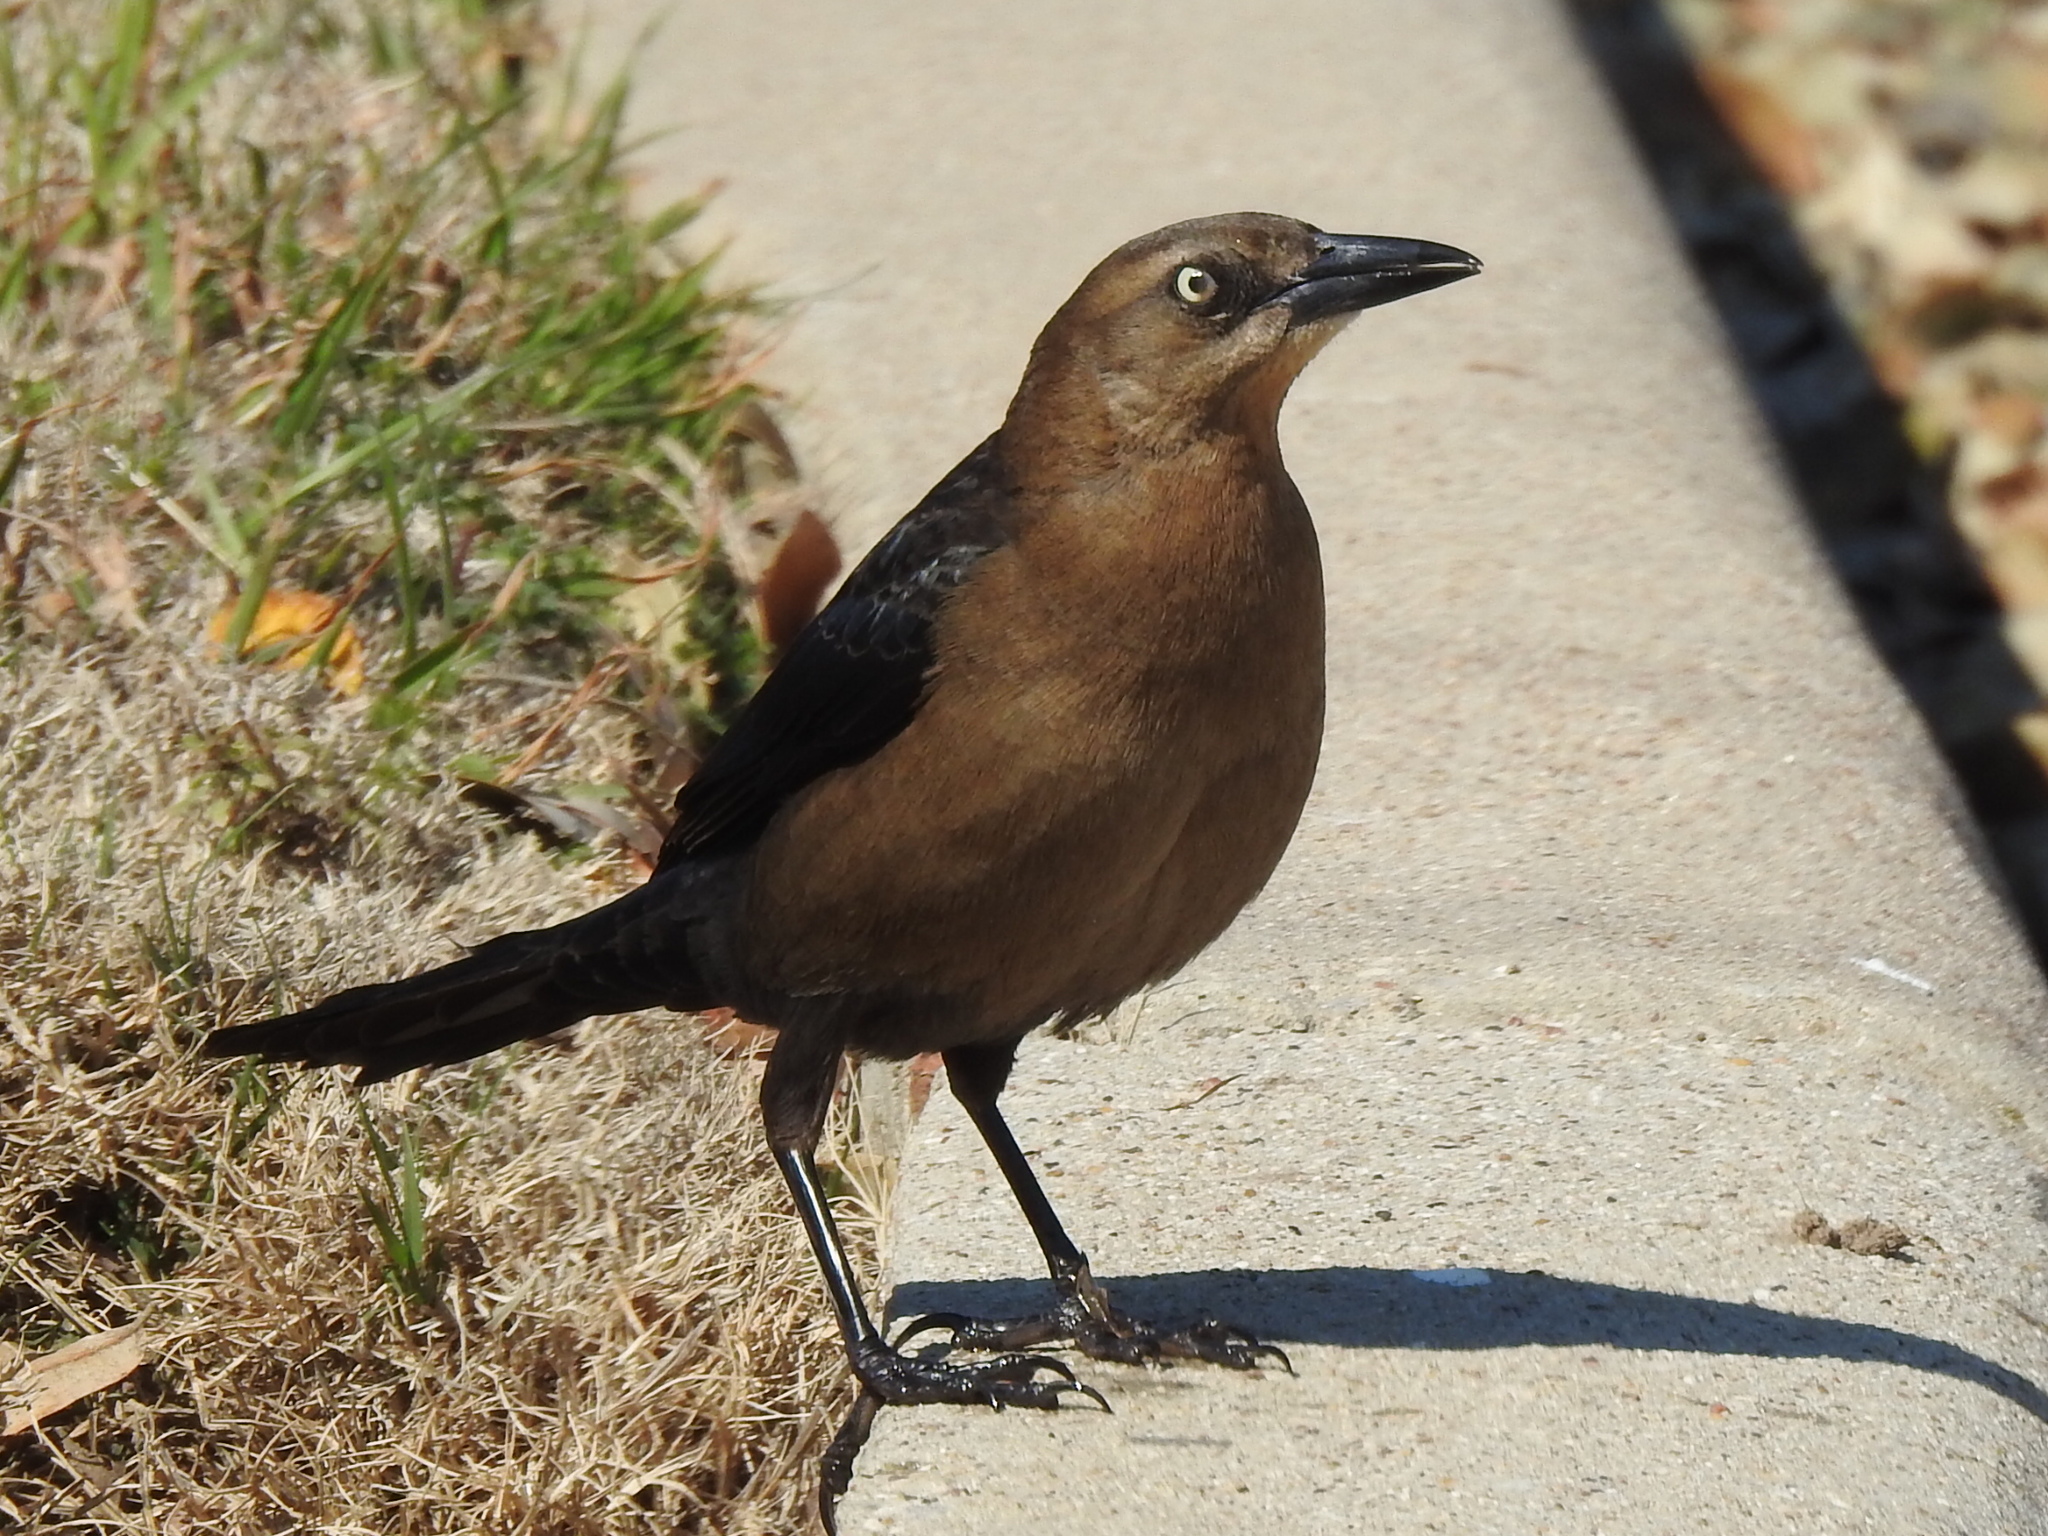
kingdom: Animalia
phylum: Chordata
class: Aves
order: Passeriformes
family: Icteridae
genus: Quiscalus
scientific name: Quiscalus mexicanus
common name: Great-tailed grackle
